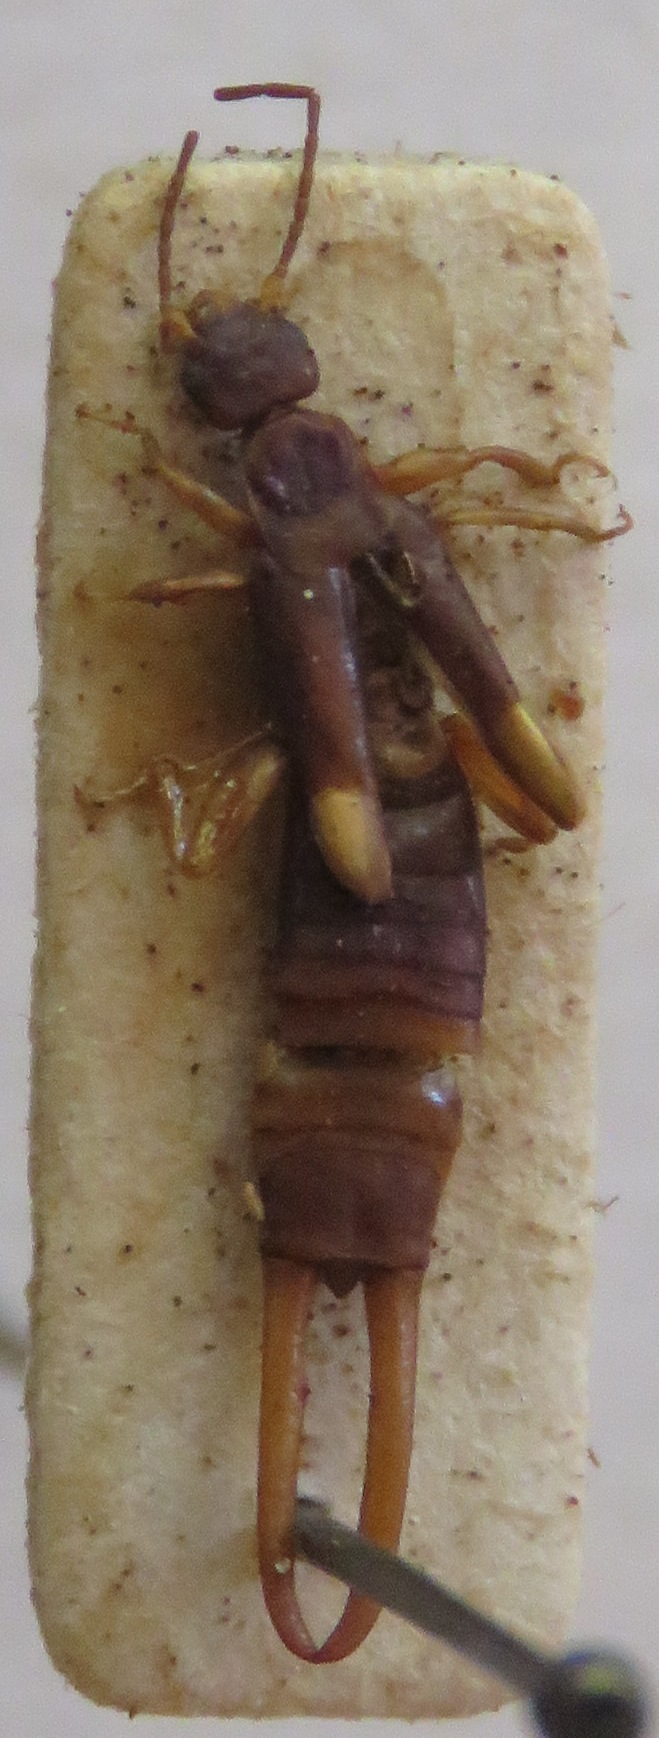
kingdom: Animalia
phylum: Arthropoda
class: Insecta
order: Dermaptera
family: Spongiphoridae
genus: Mecomera
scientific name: Mecomera brunnea
